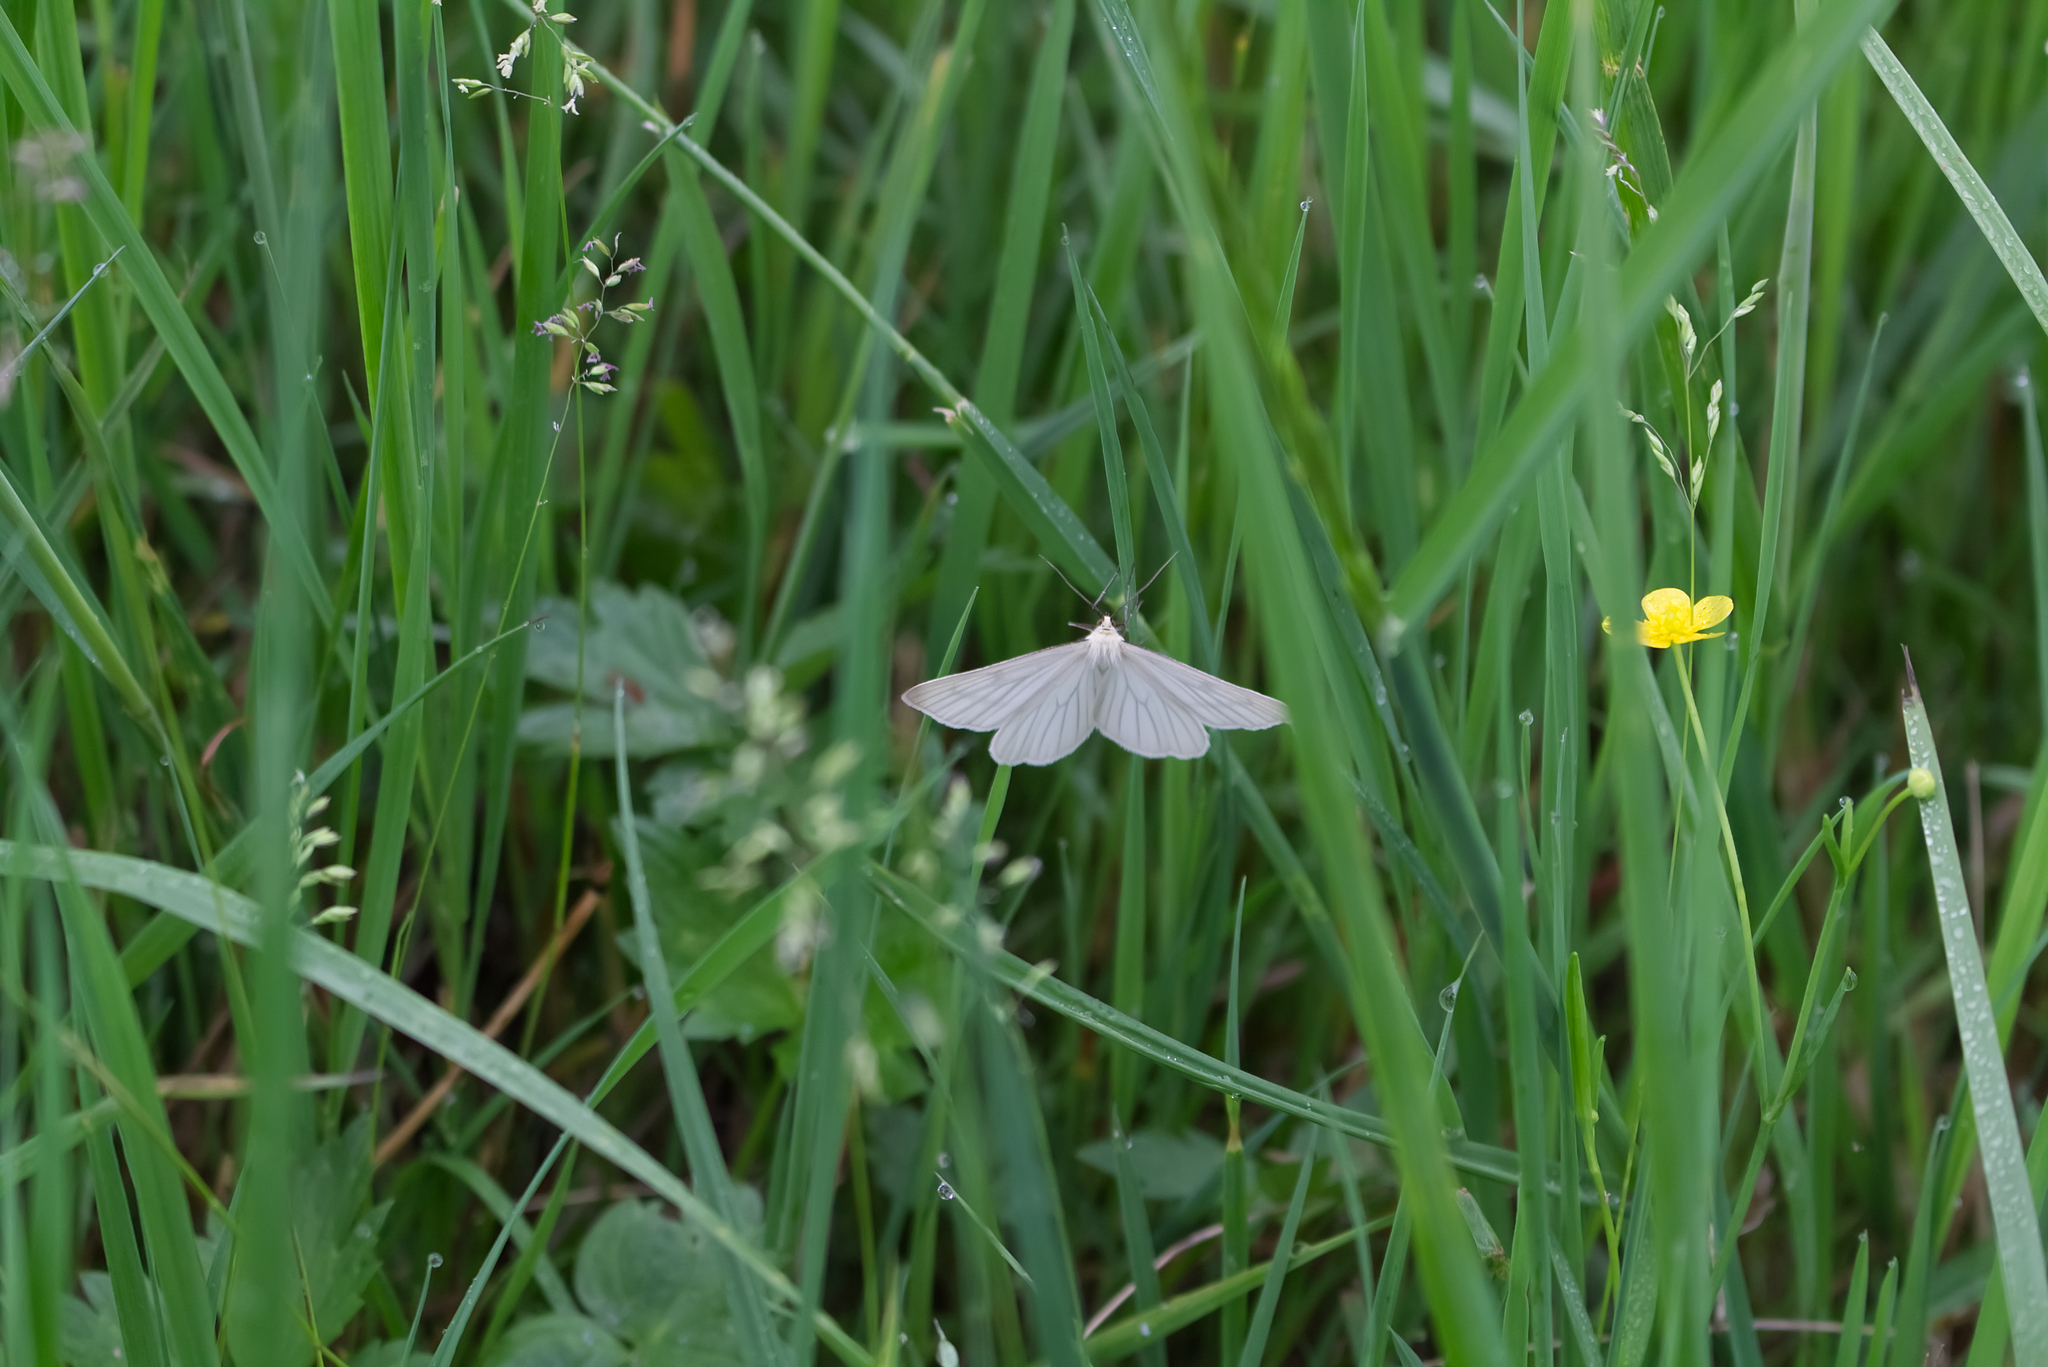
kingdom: Animalia
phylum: Arthropoda
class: Insecta
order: Lepidoptera
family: Geometridae
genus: Siona
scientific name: Siona lineata
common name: Black-veined moth
